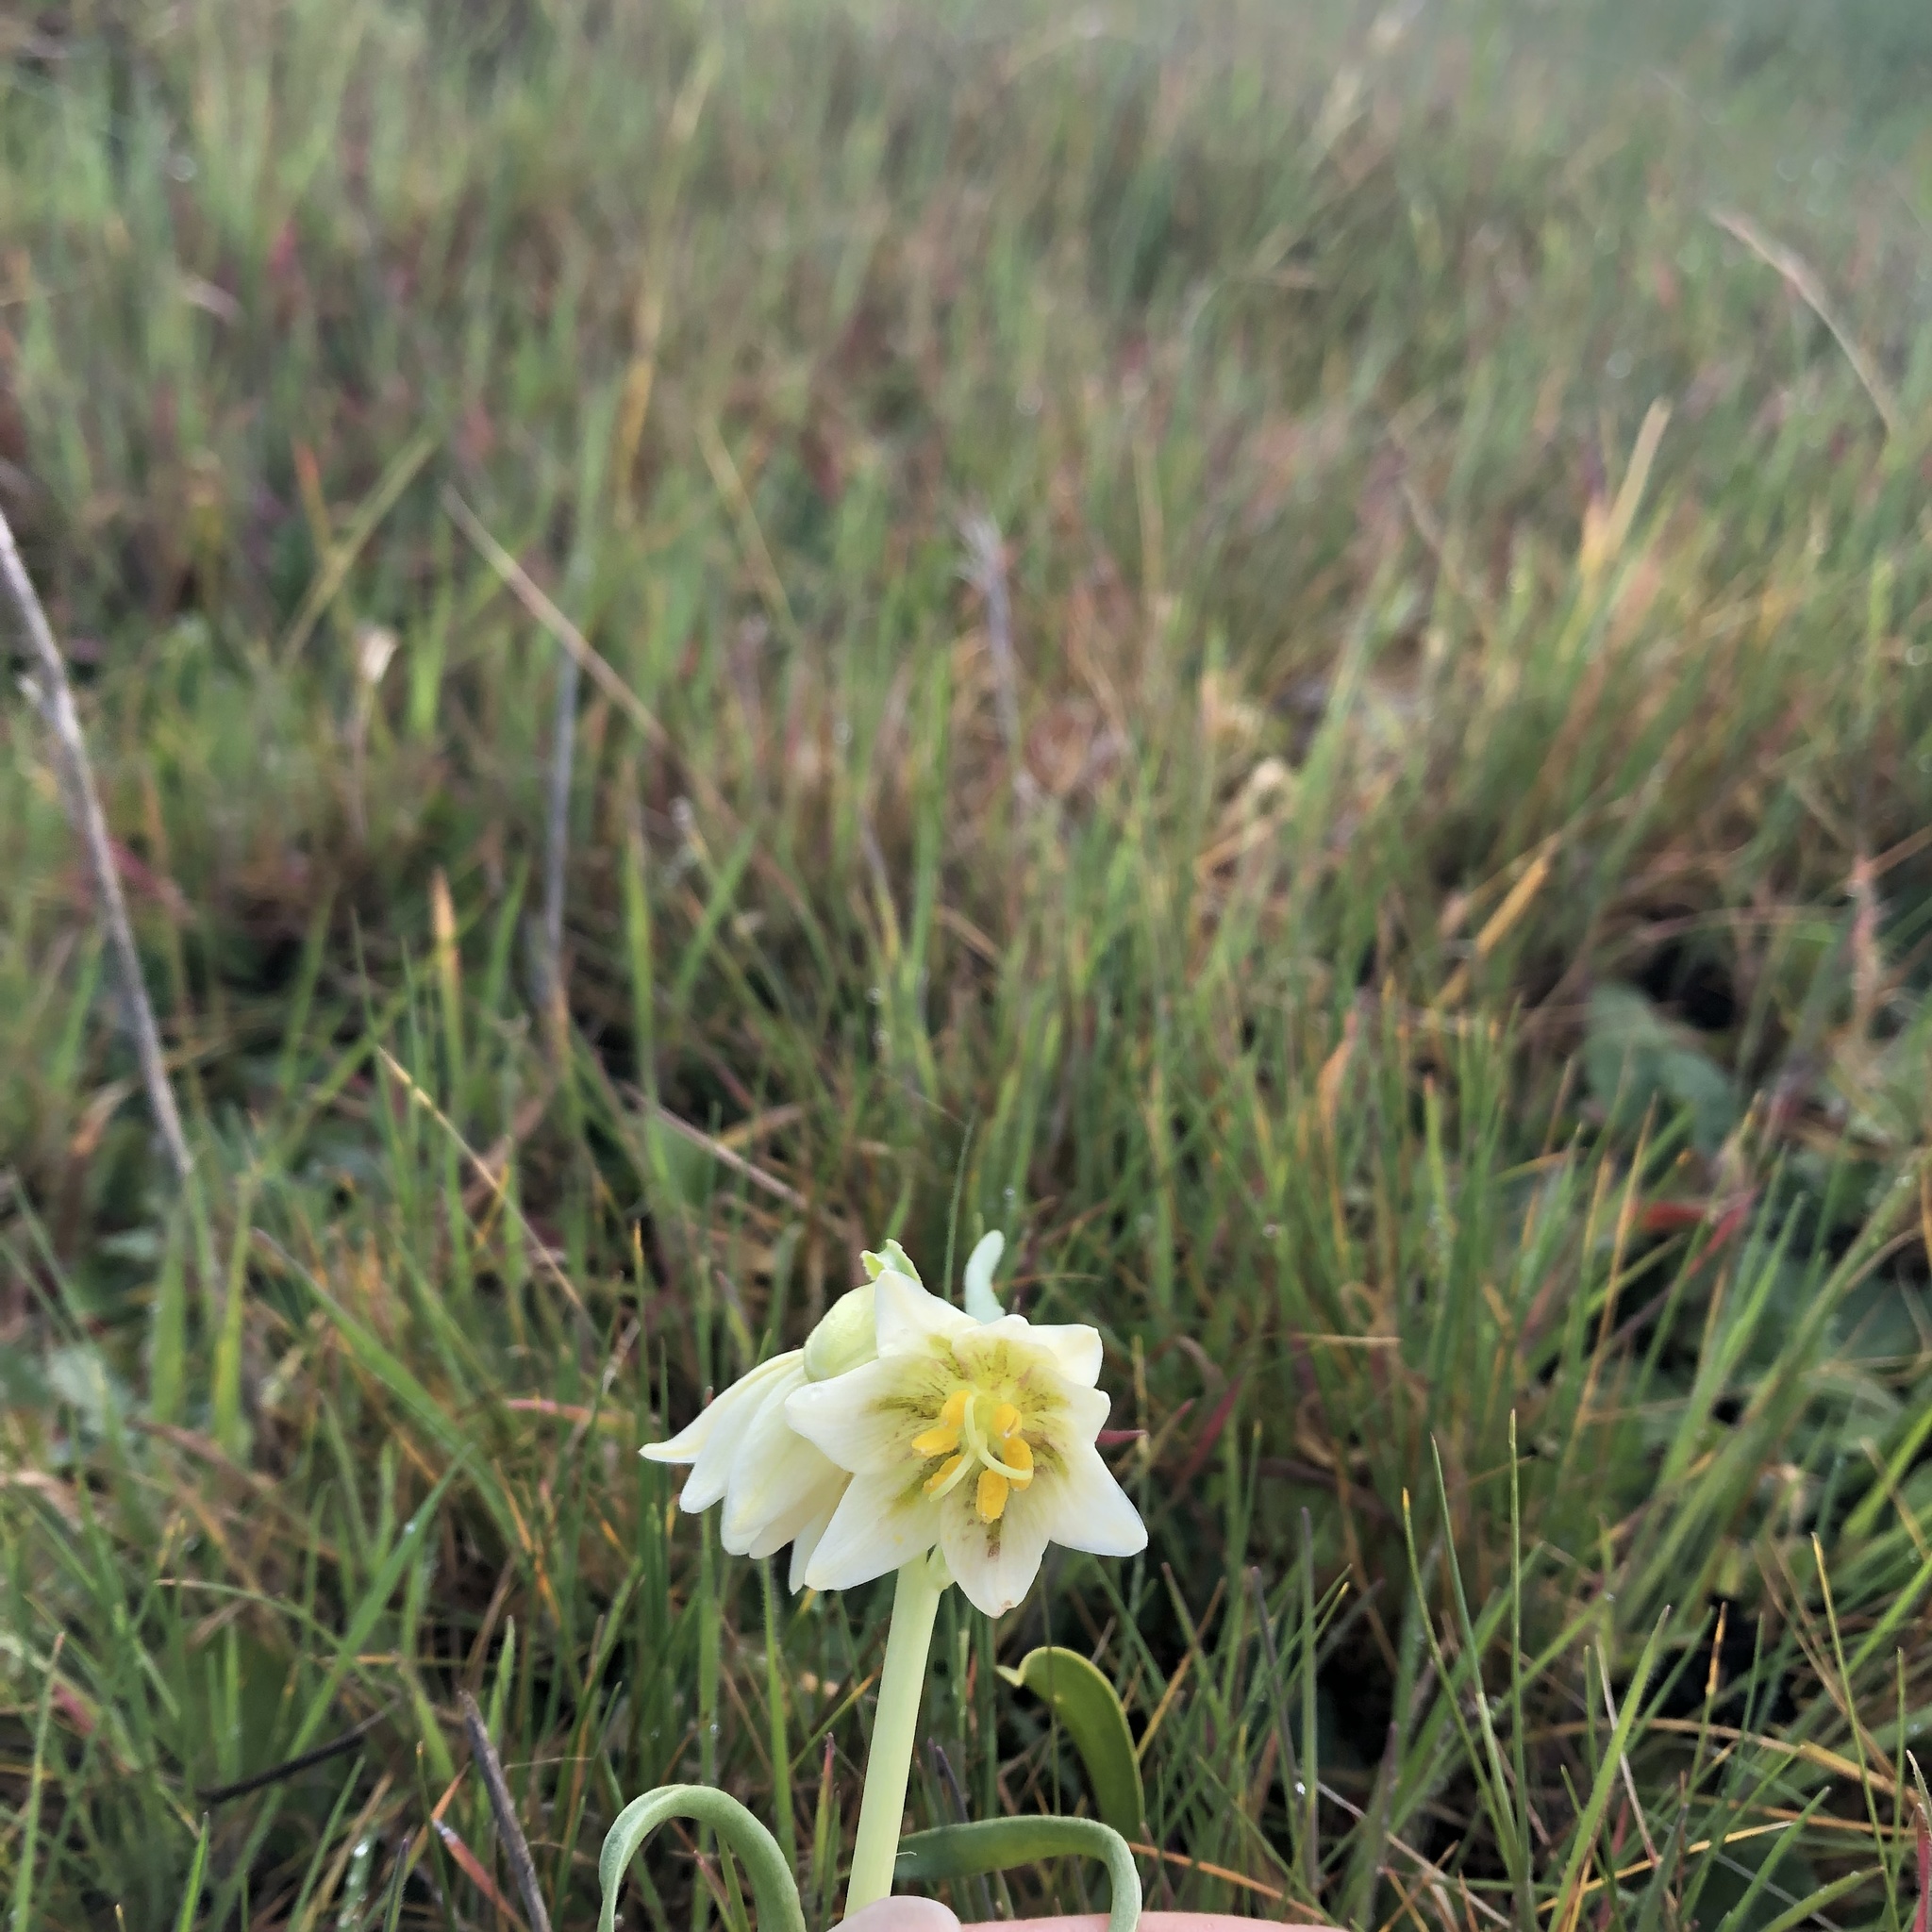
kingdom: Plantae
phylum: Tracheophyta
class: Liliopsida
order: Liliales
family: Liliaceae
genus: Fritillaria
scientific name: Fritillaria liliacea
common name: Fragrant fritillary
